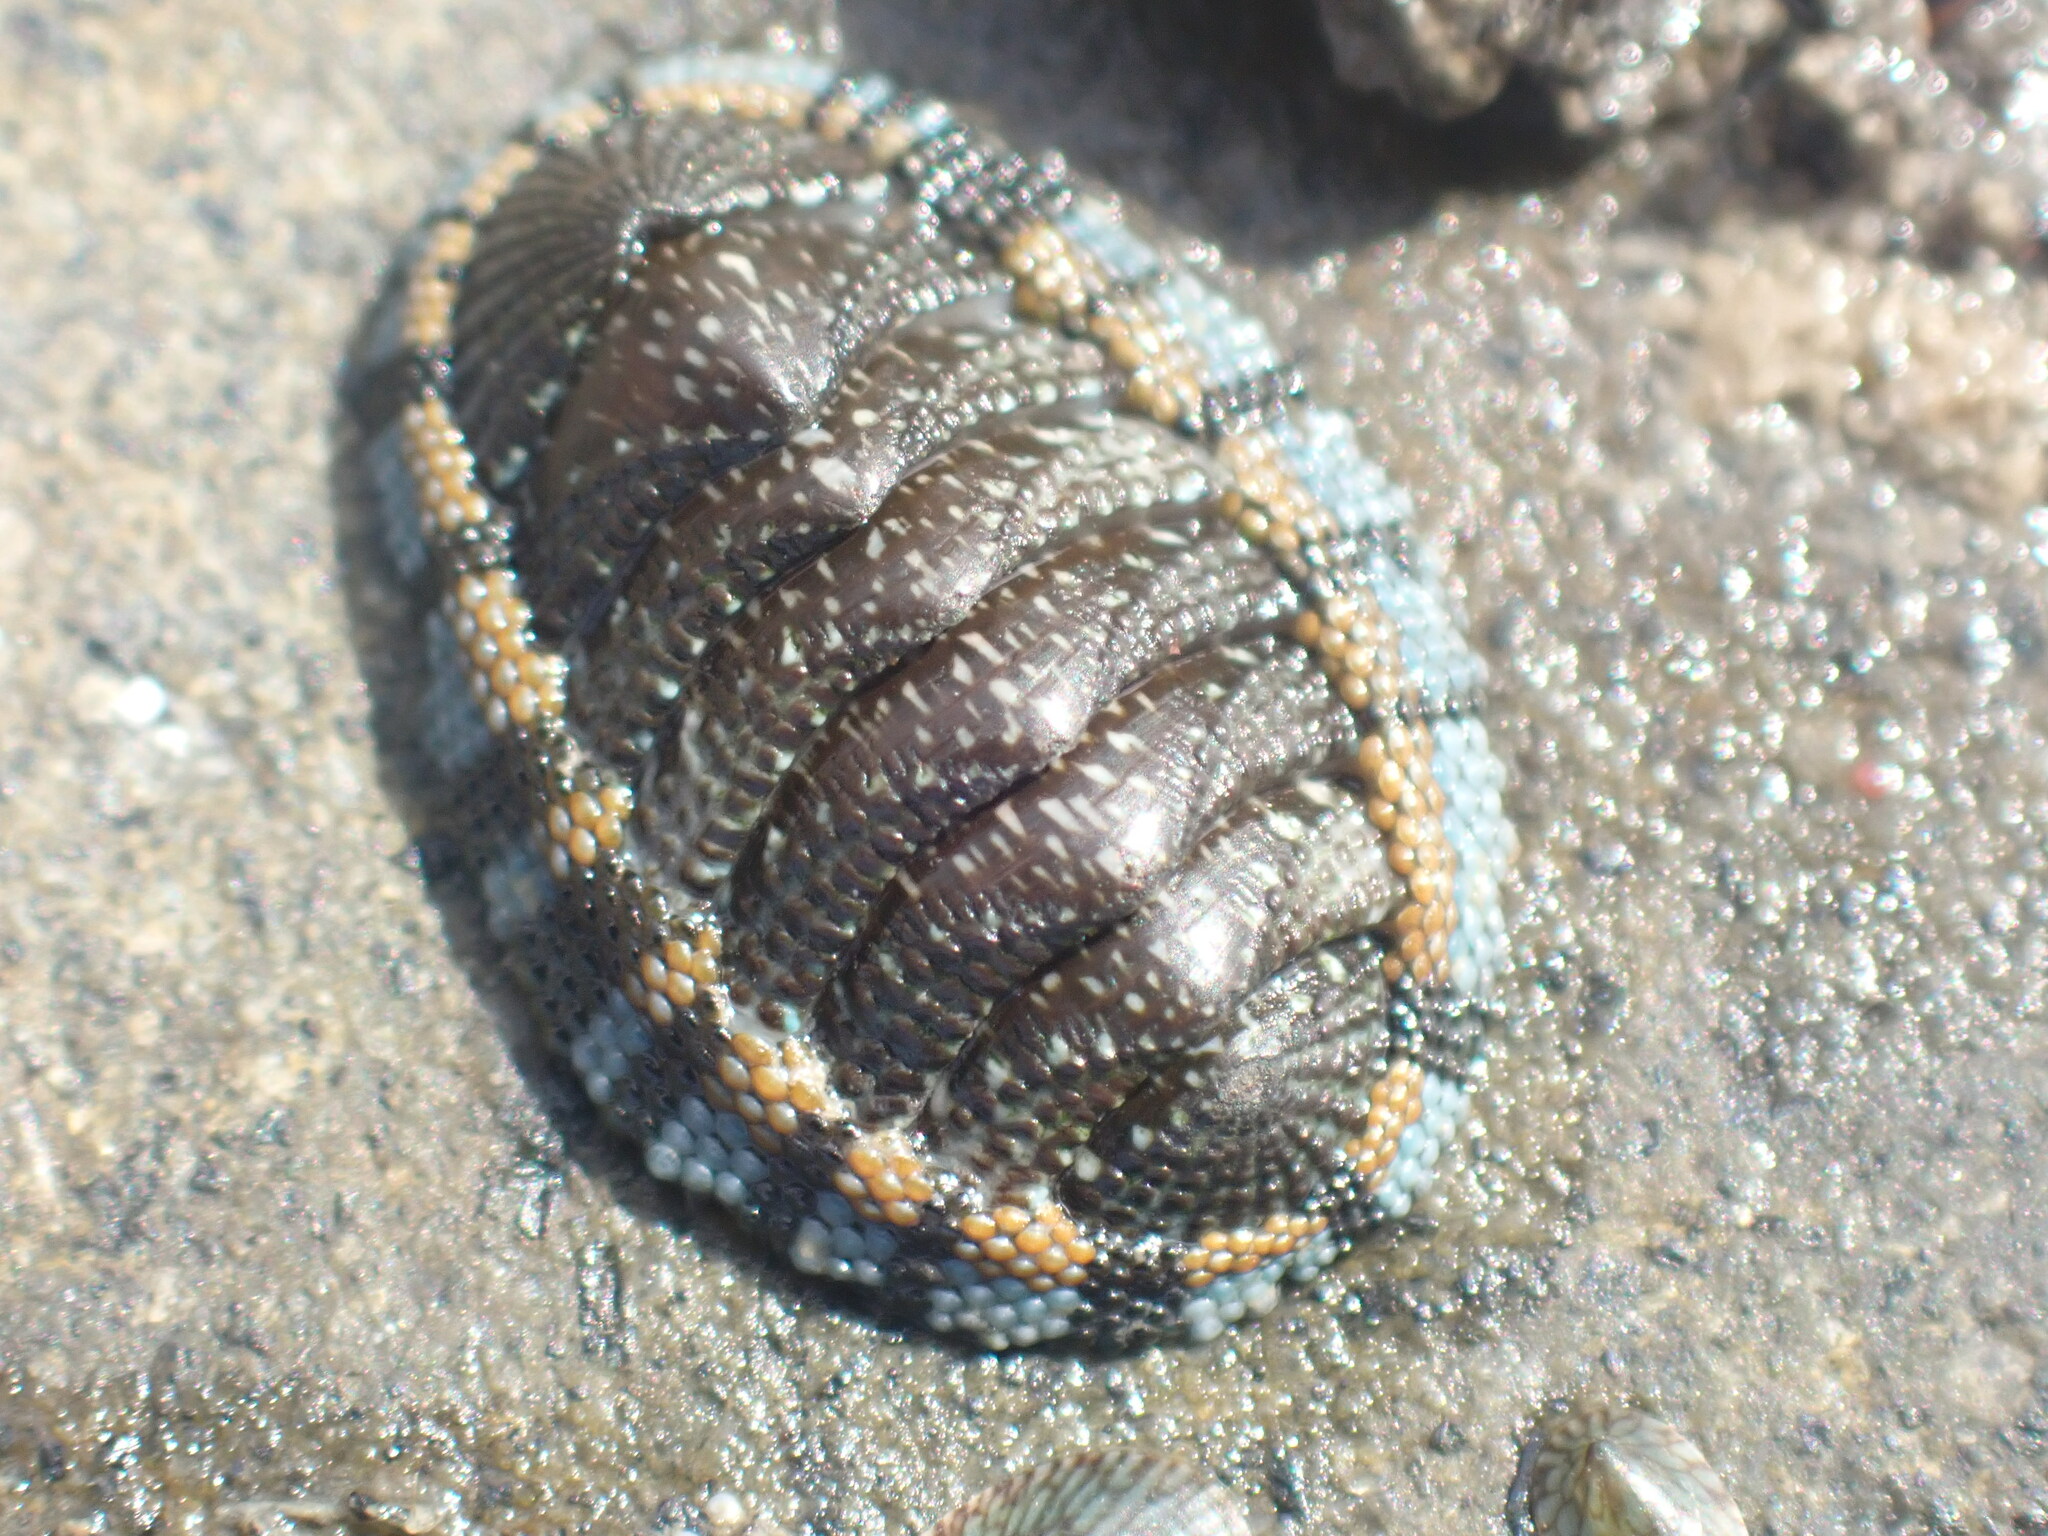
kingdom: Animalia
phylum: Mollusca
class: Polyplacophora
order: Chitonida
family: Chitonidae
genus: Sypharochiton
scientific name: Sypharochiton sinclairi
